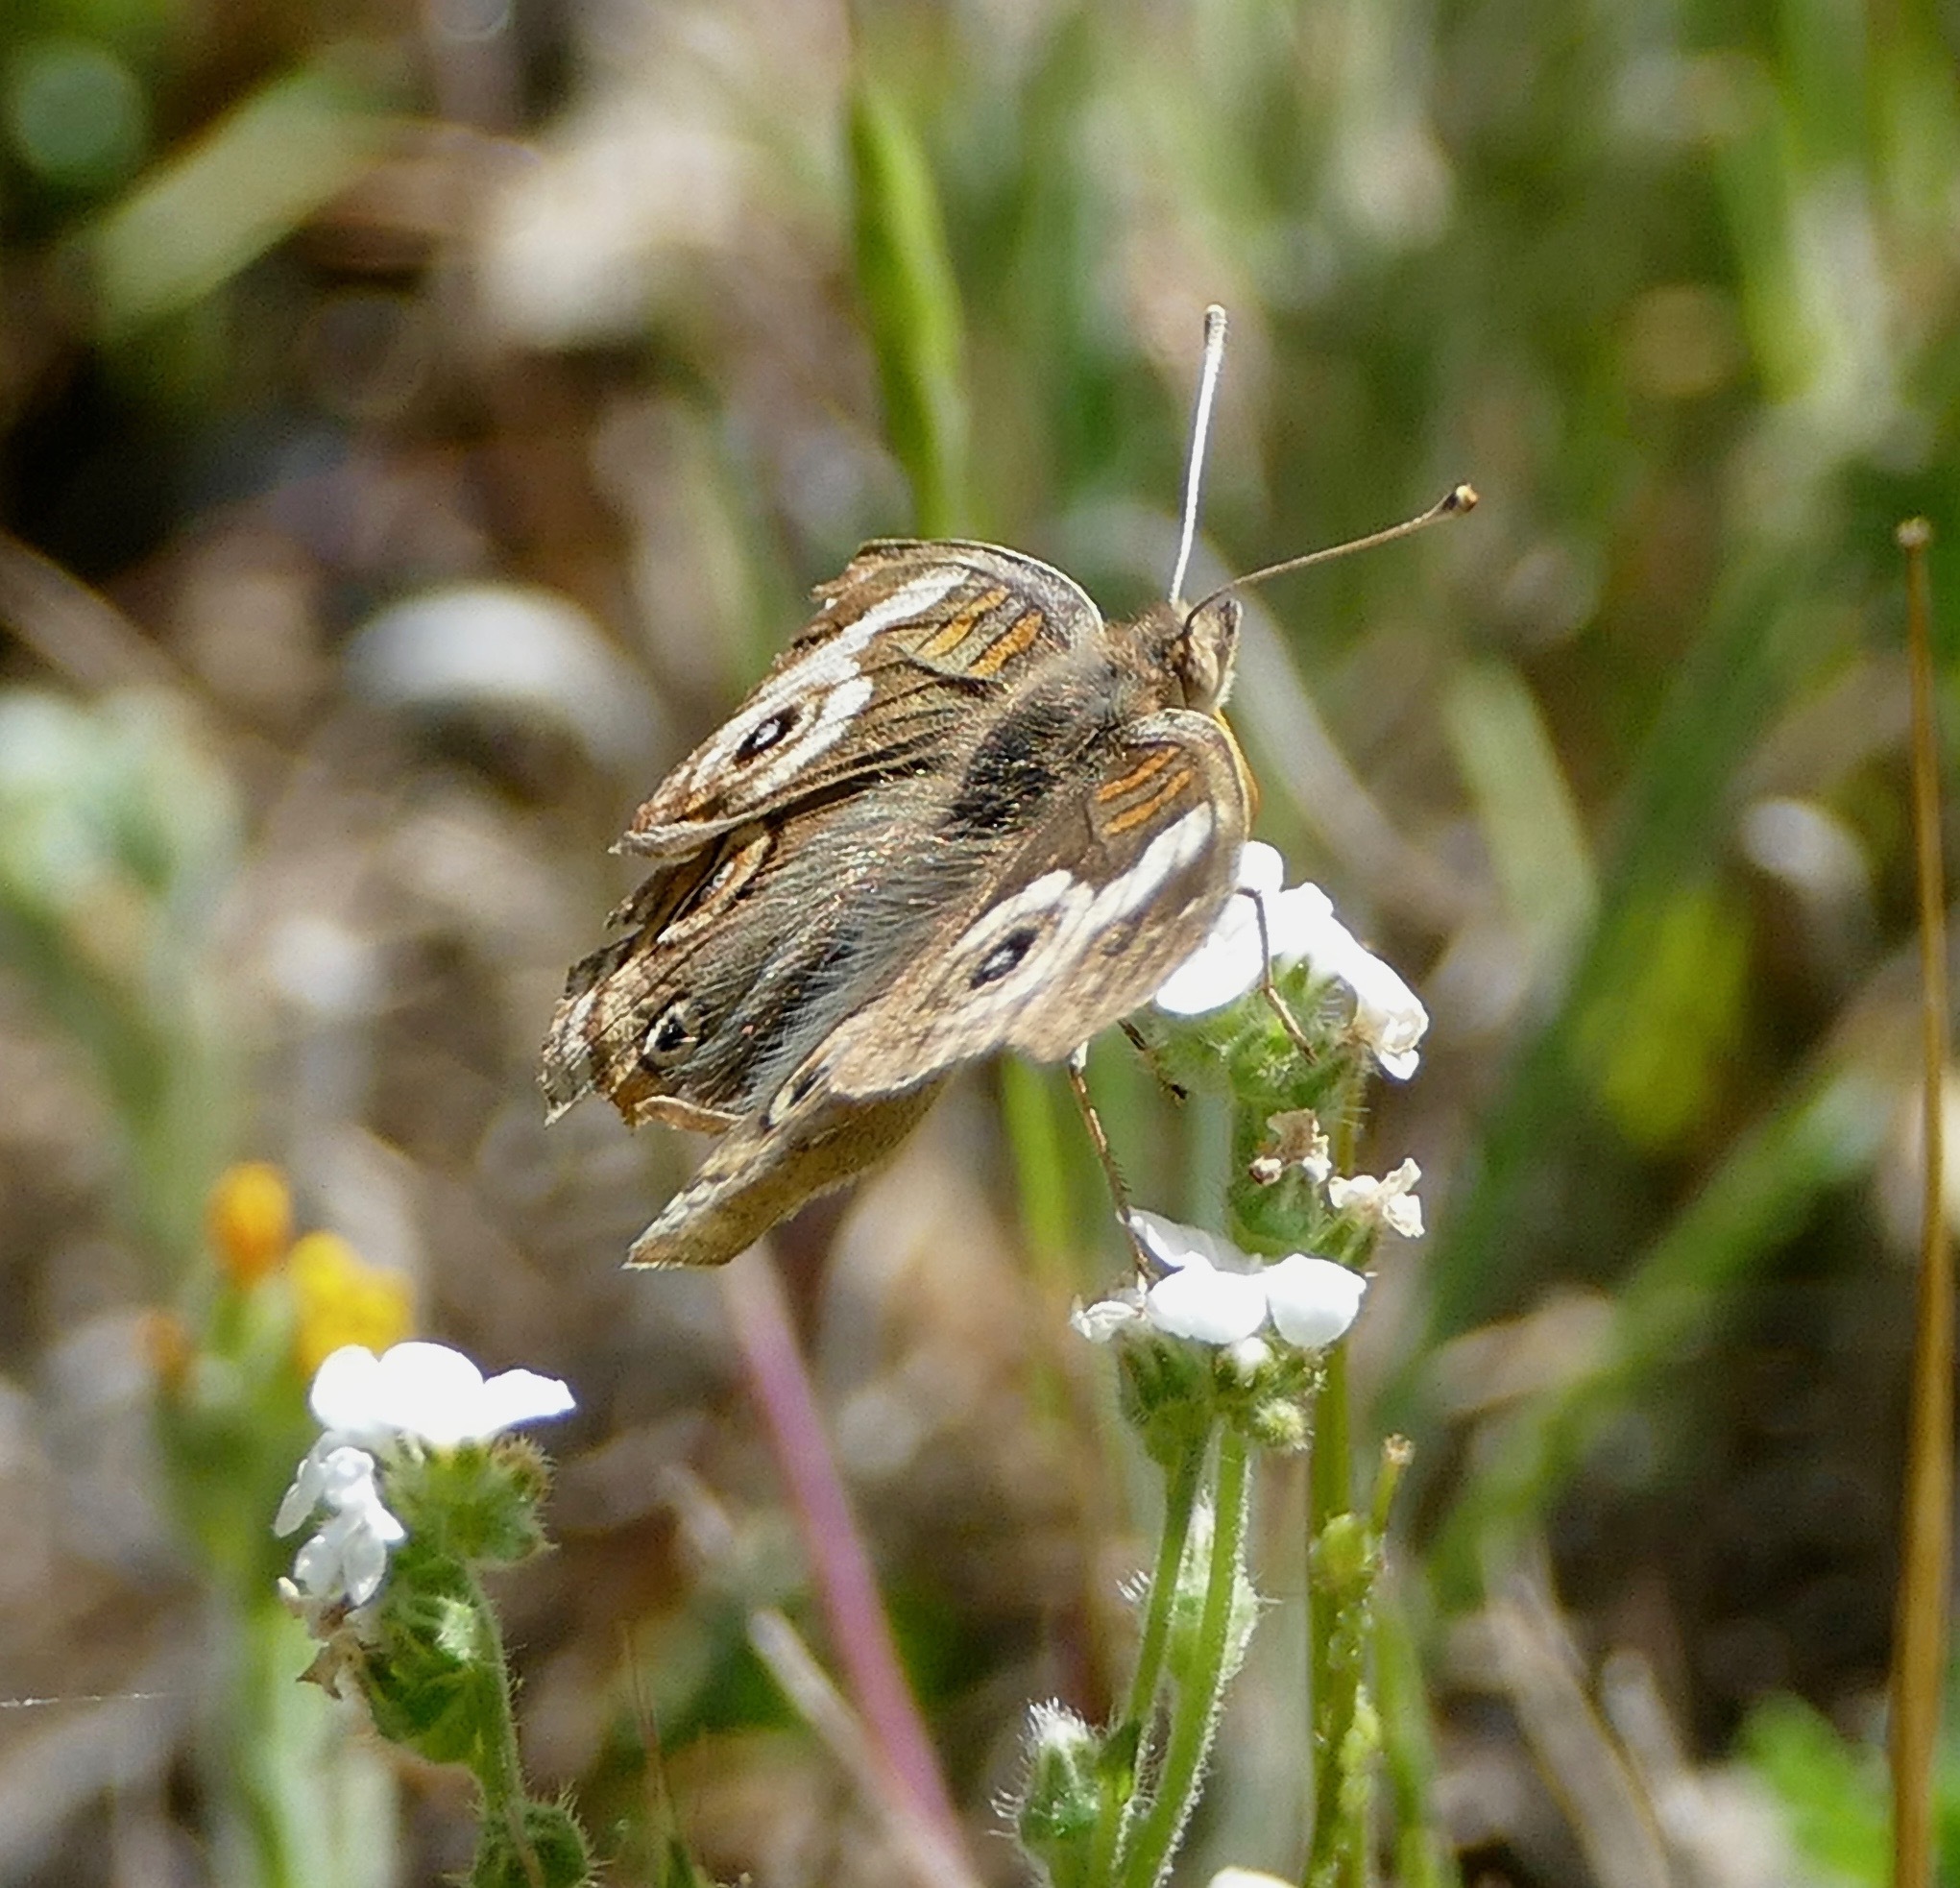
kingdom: Animalia
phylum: Arthropoda
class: Insecta
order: Lepidoptera
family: Nymphalidae
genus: Junonia
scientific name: Junonia grisea
